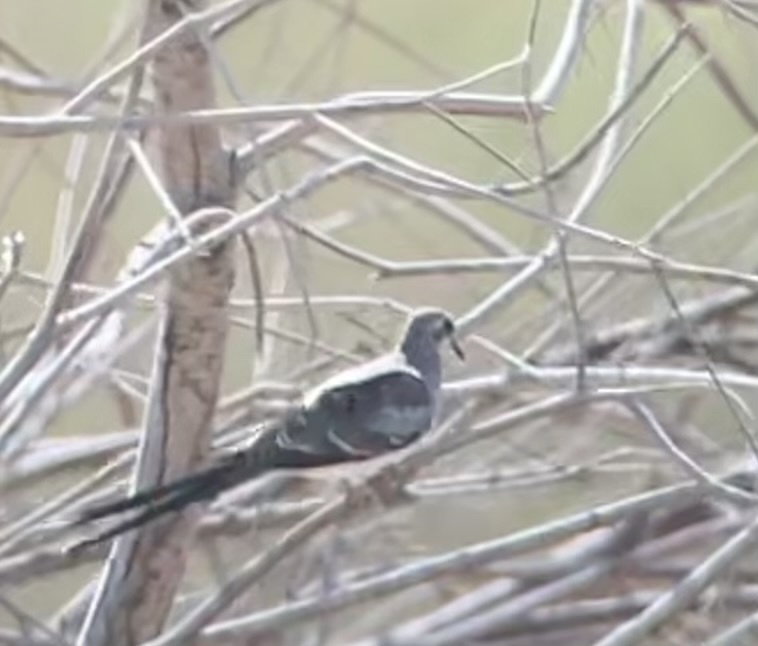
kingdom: Animalia
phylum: Chordata
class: Aves
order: Columbiformes
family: Columbidae
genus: Oena
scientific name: Oena capensis
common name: Namaqua dove
